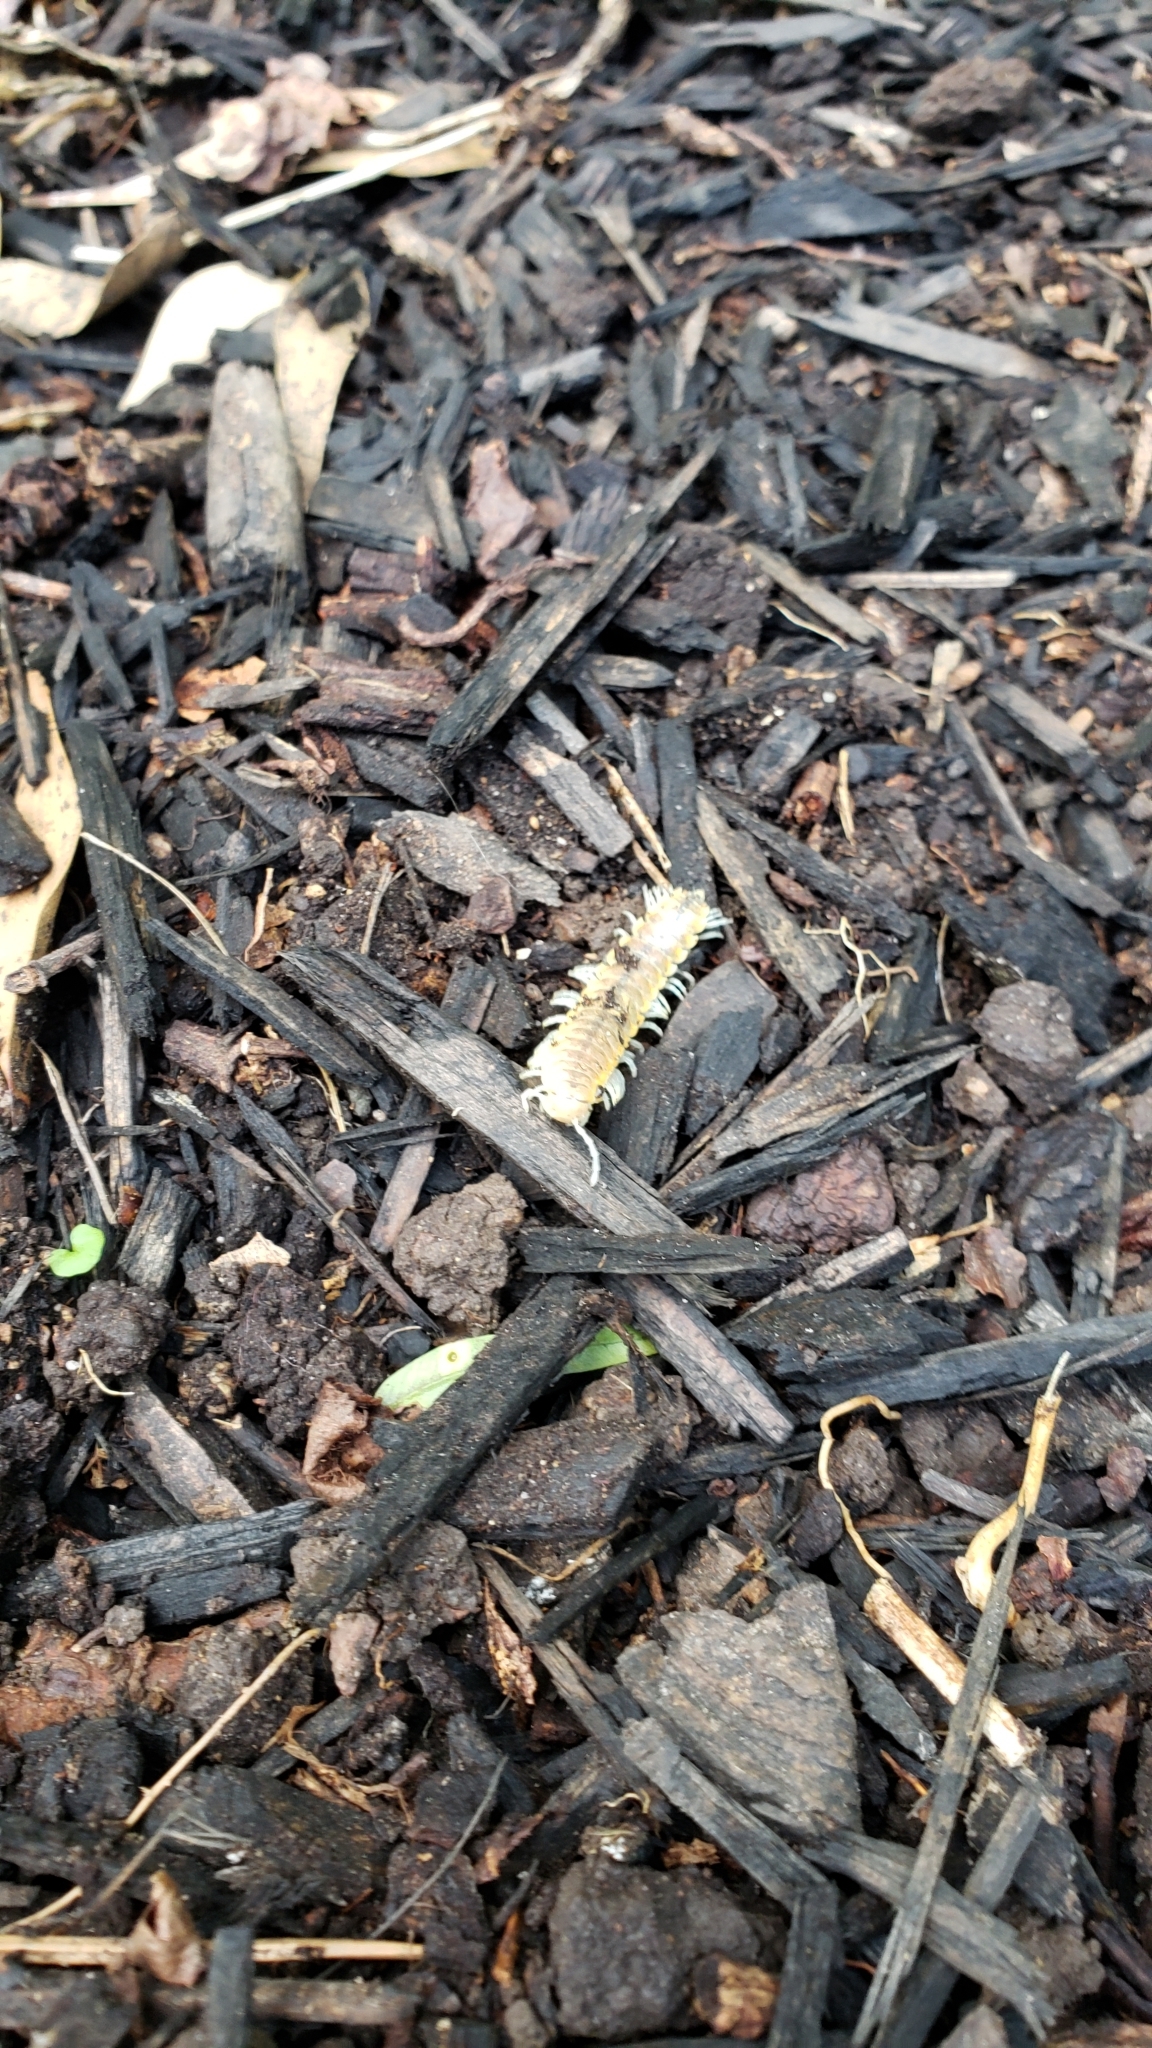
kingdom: Animalia
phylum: Arthropoda
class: Diplopoda
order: Polydesmida
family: Xystodesmidae
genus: Xystocheir
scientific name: Xystocheir dissecta
